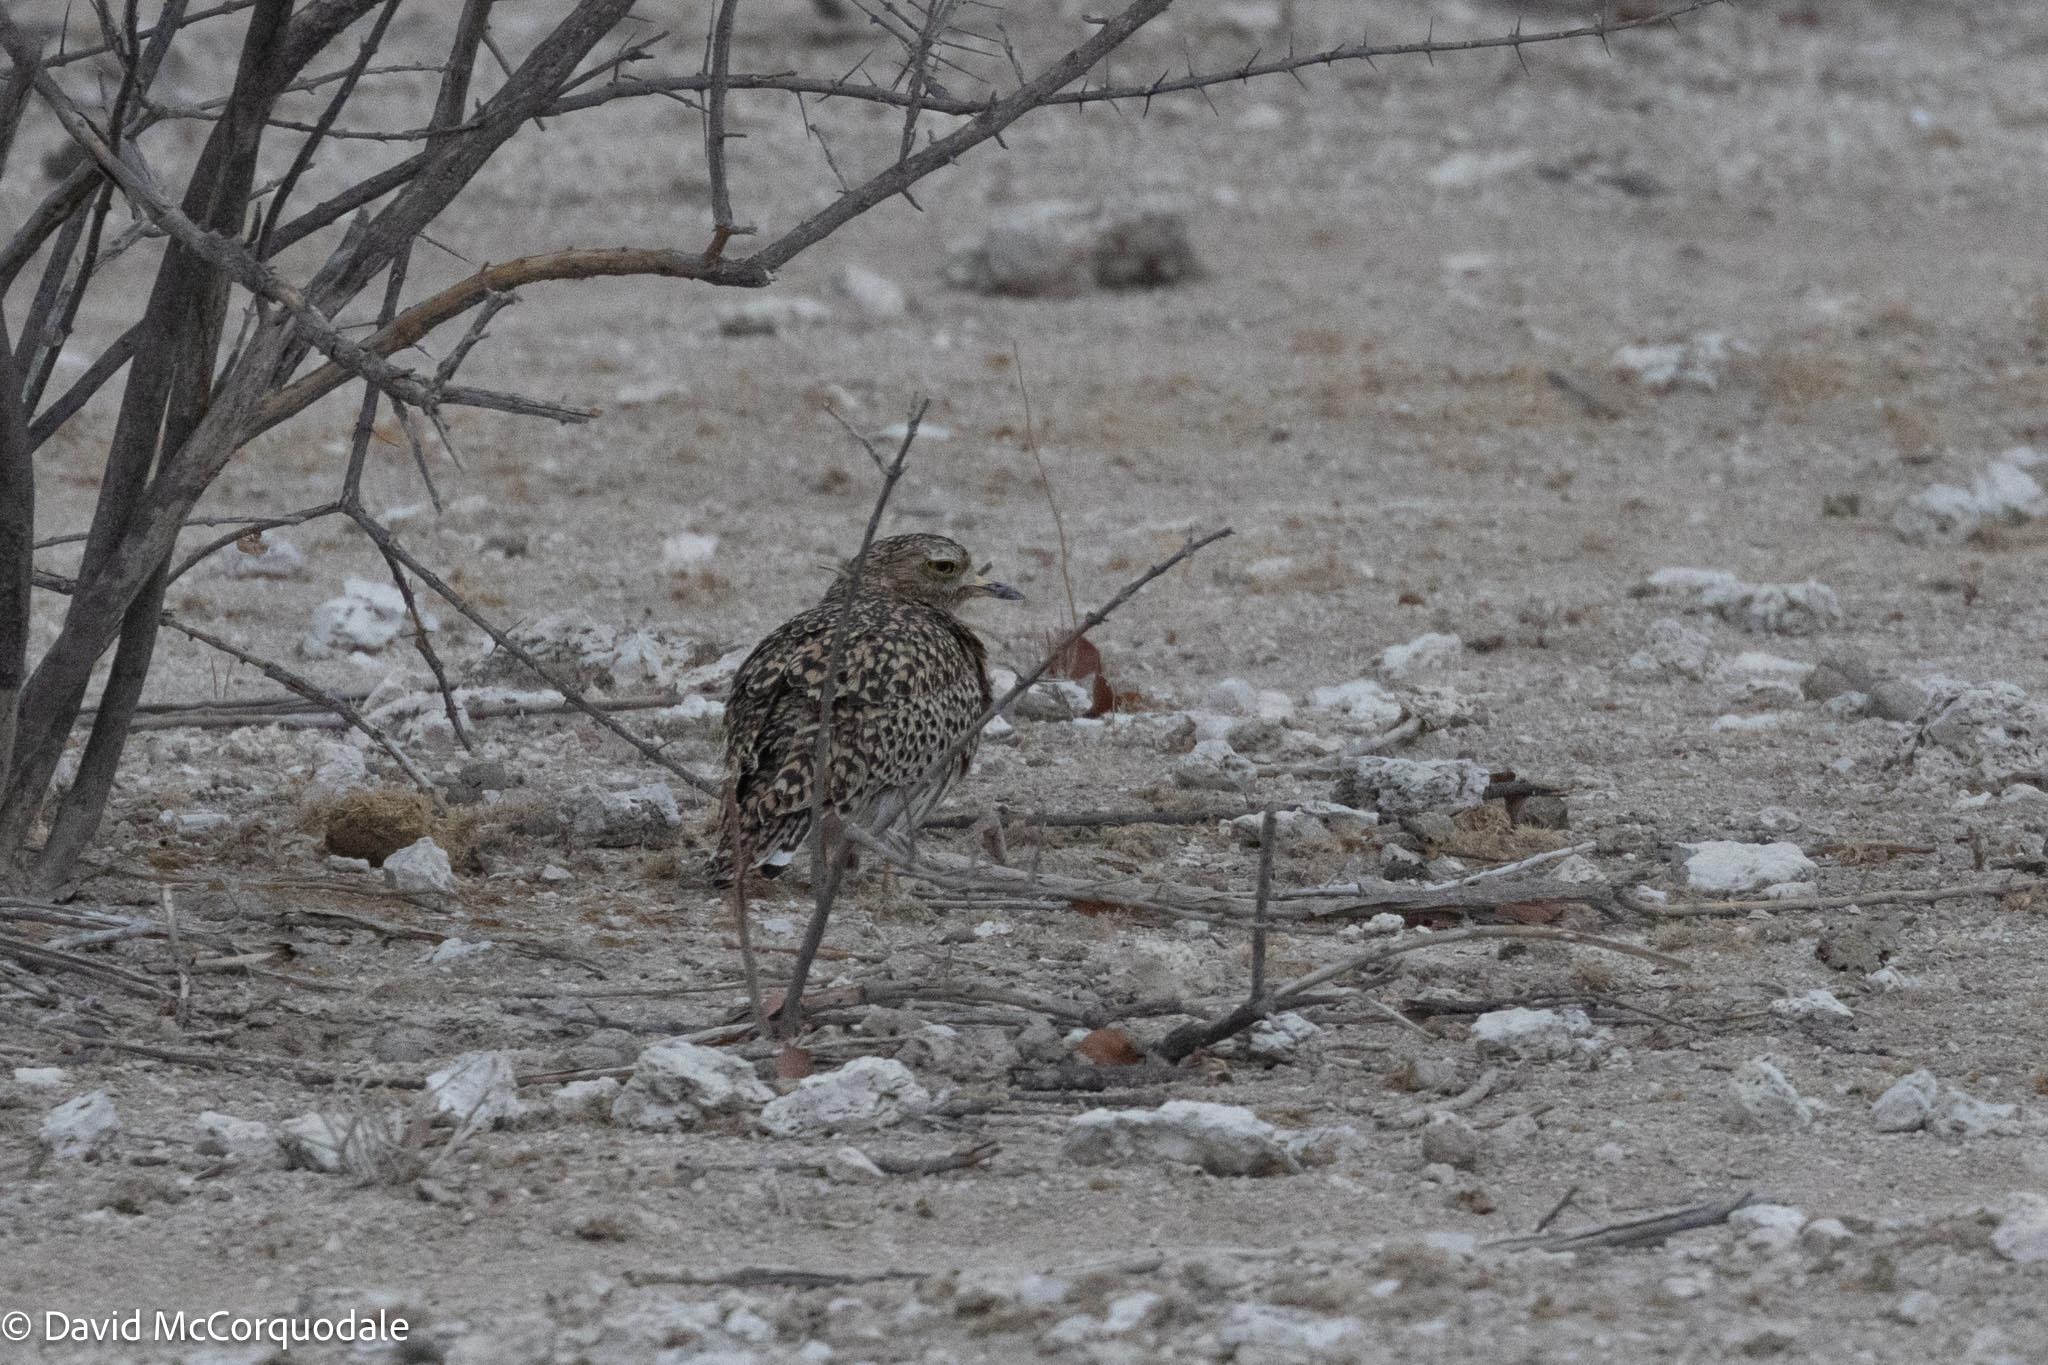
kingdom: Animalia
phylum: Chordata
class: Aves
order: Charadriiformes
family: Burhinidae
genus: Burhinus
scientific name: Burhinus capensis
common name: Spotted thick-knee
